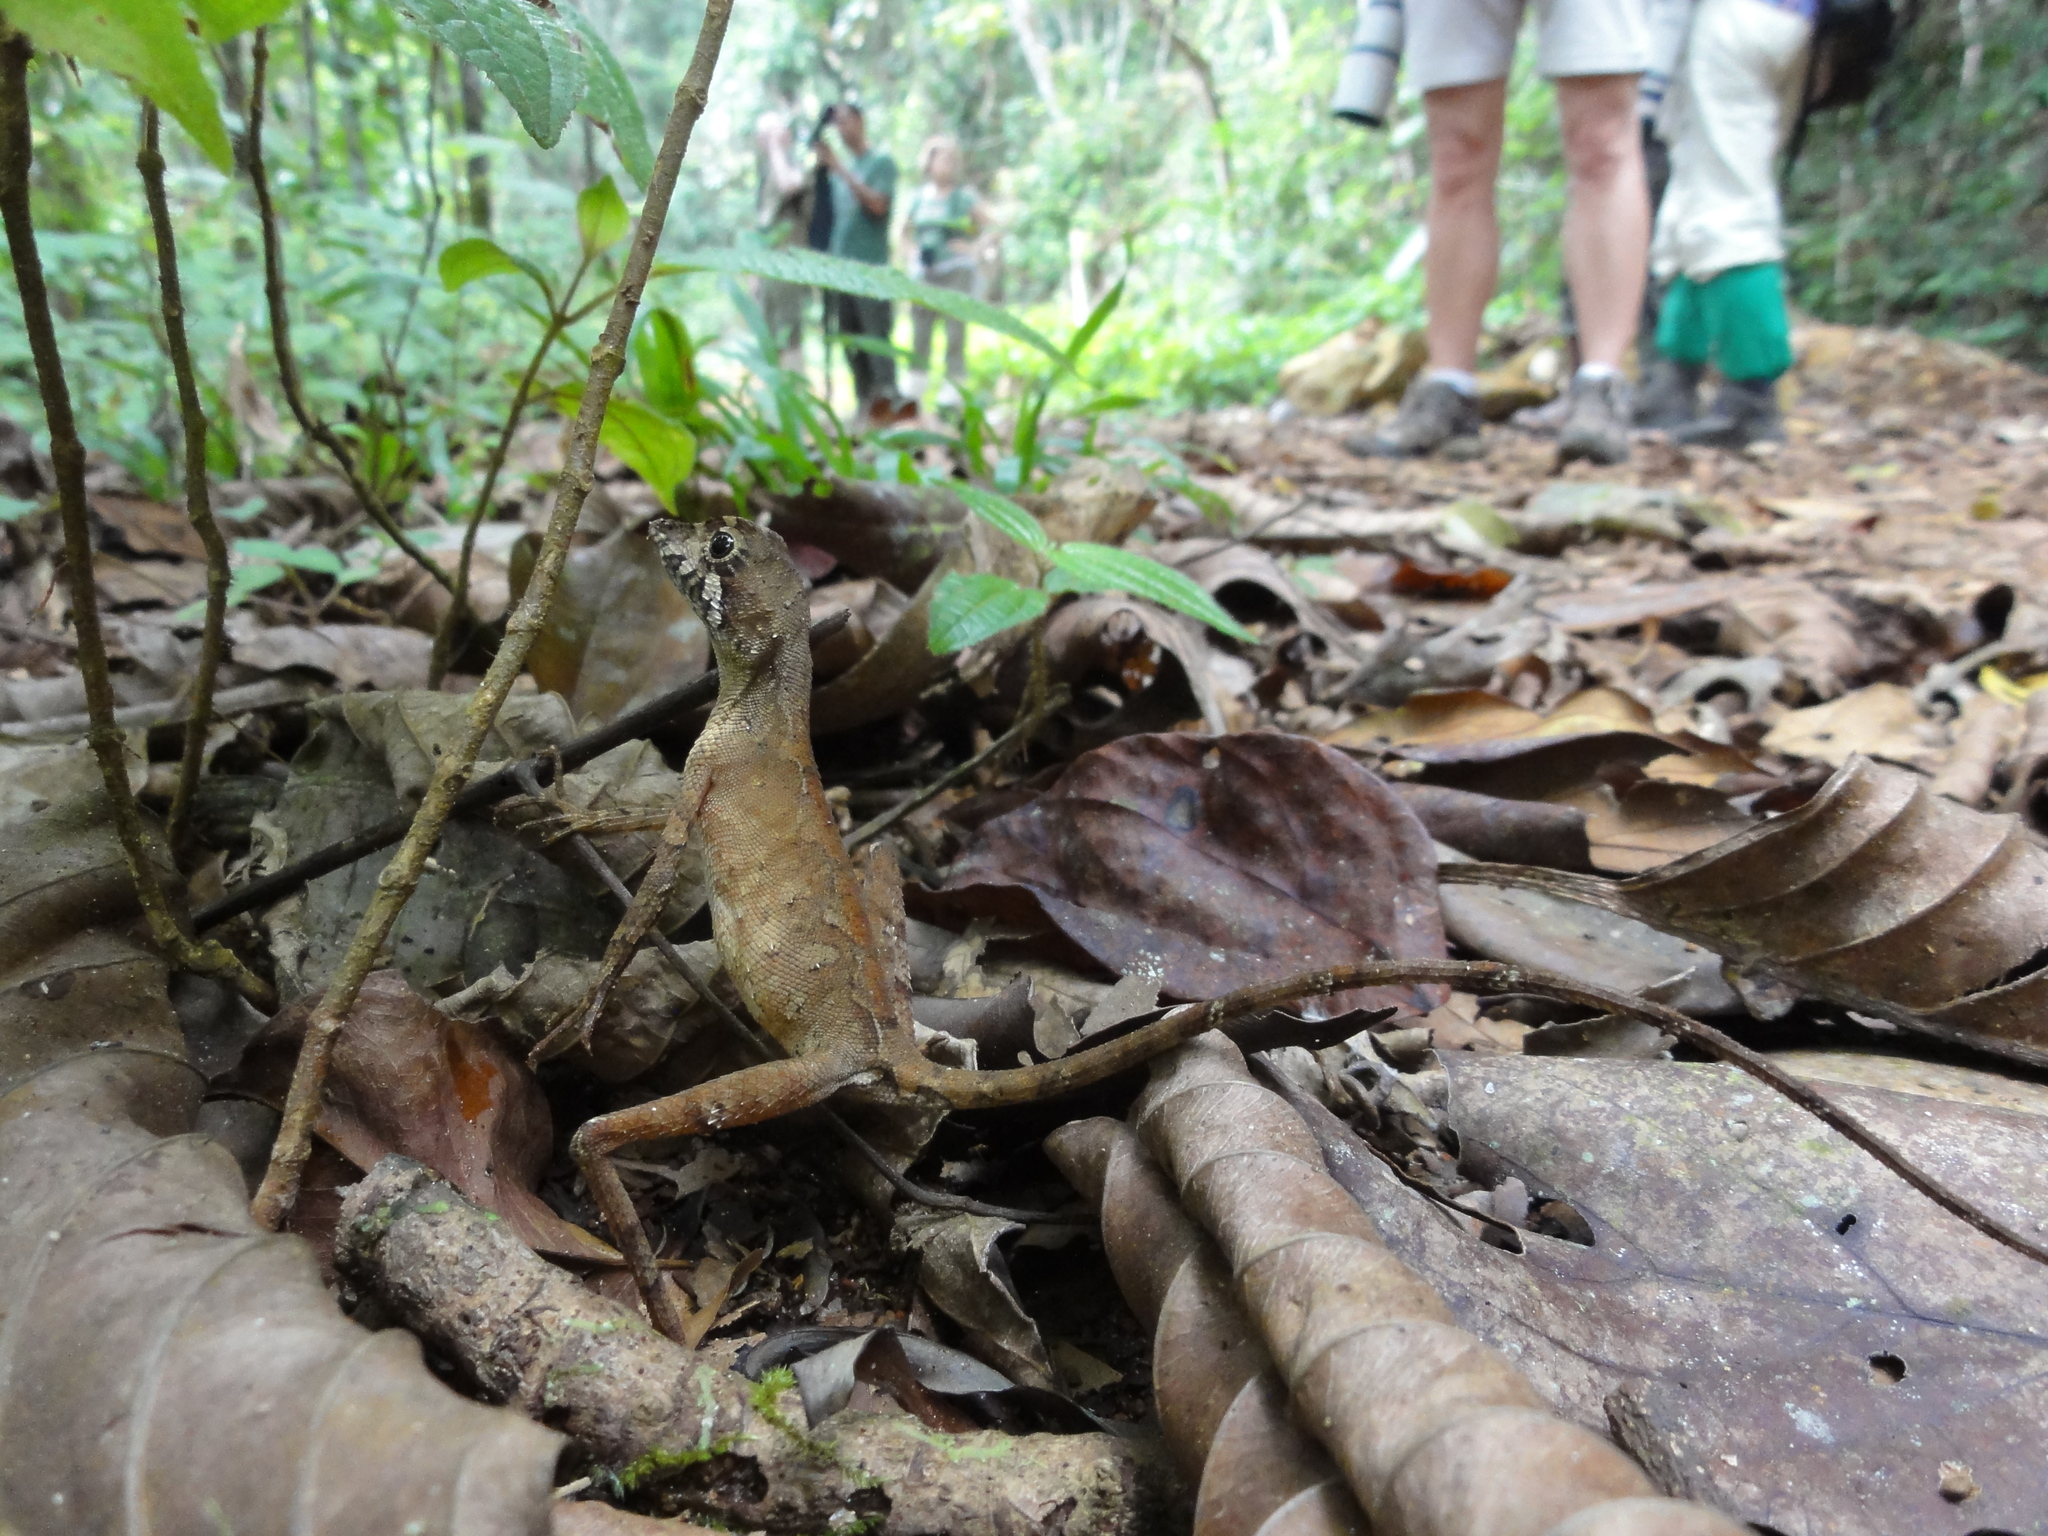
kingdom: Animalia
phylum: Chordata
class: Squamata
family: Agamidae
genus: Otocryptis
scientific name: Otocryptis wiegmanni
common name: Wiegmann's agama
